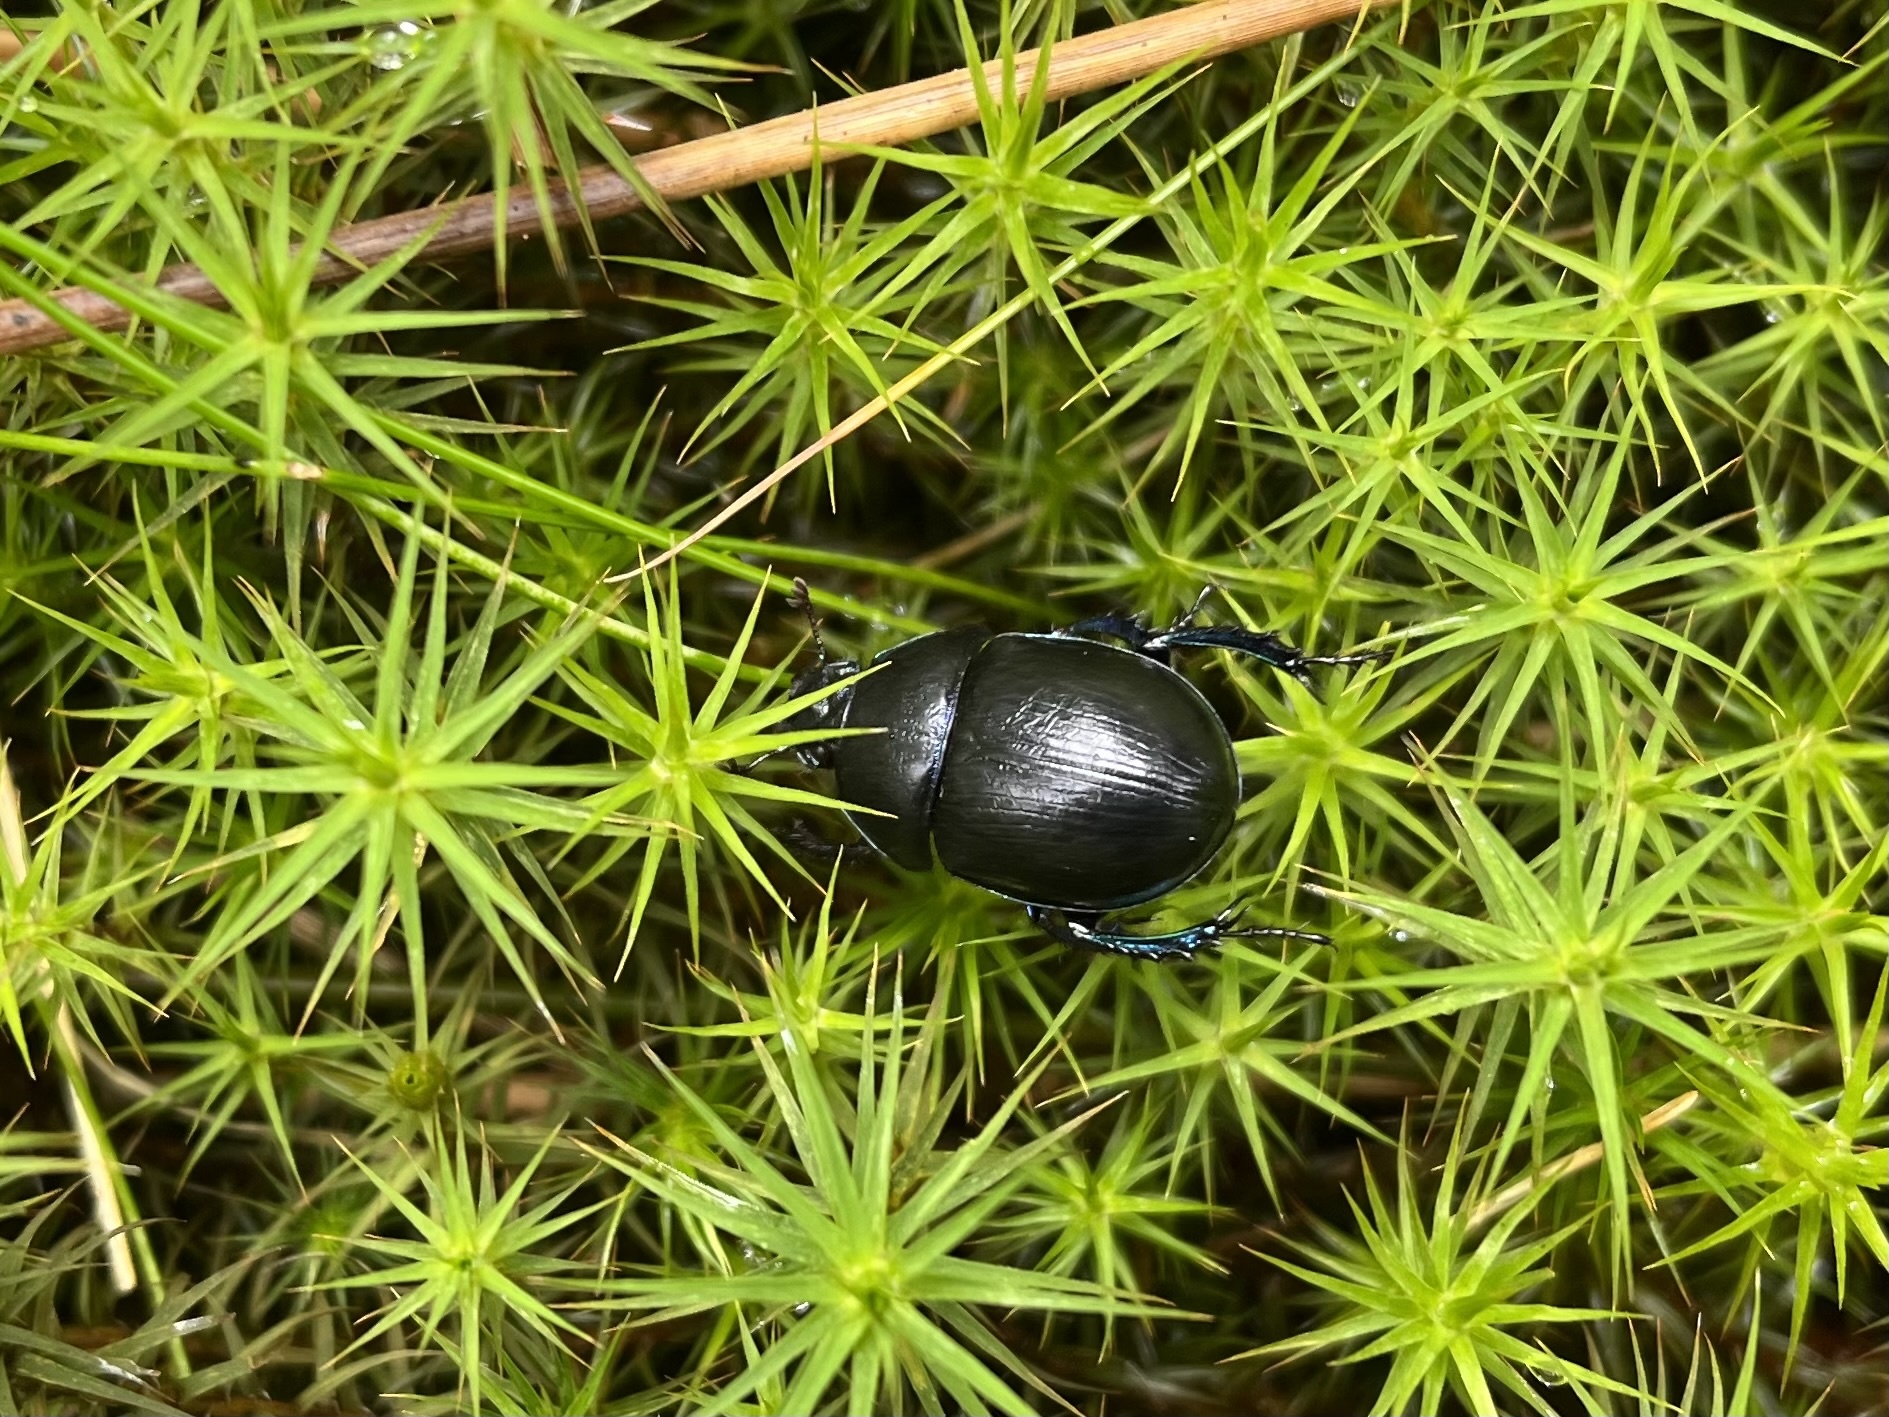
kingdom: Animalia
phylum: Arthropoda
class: Insecta
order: Coleoptera
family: Geotrupidae
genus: Anoplotrupes
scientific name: Anoplotrupes stercorosus
